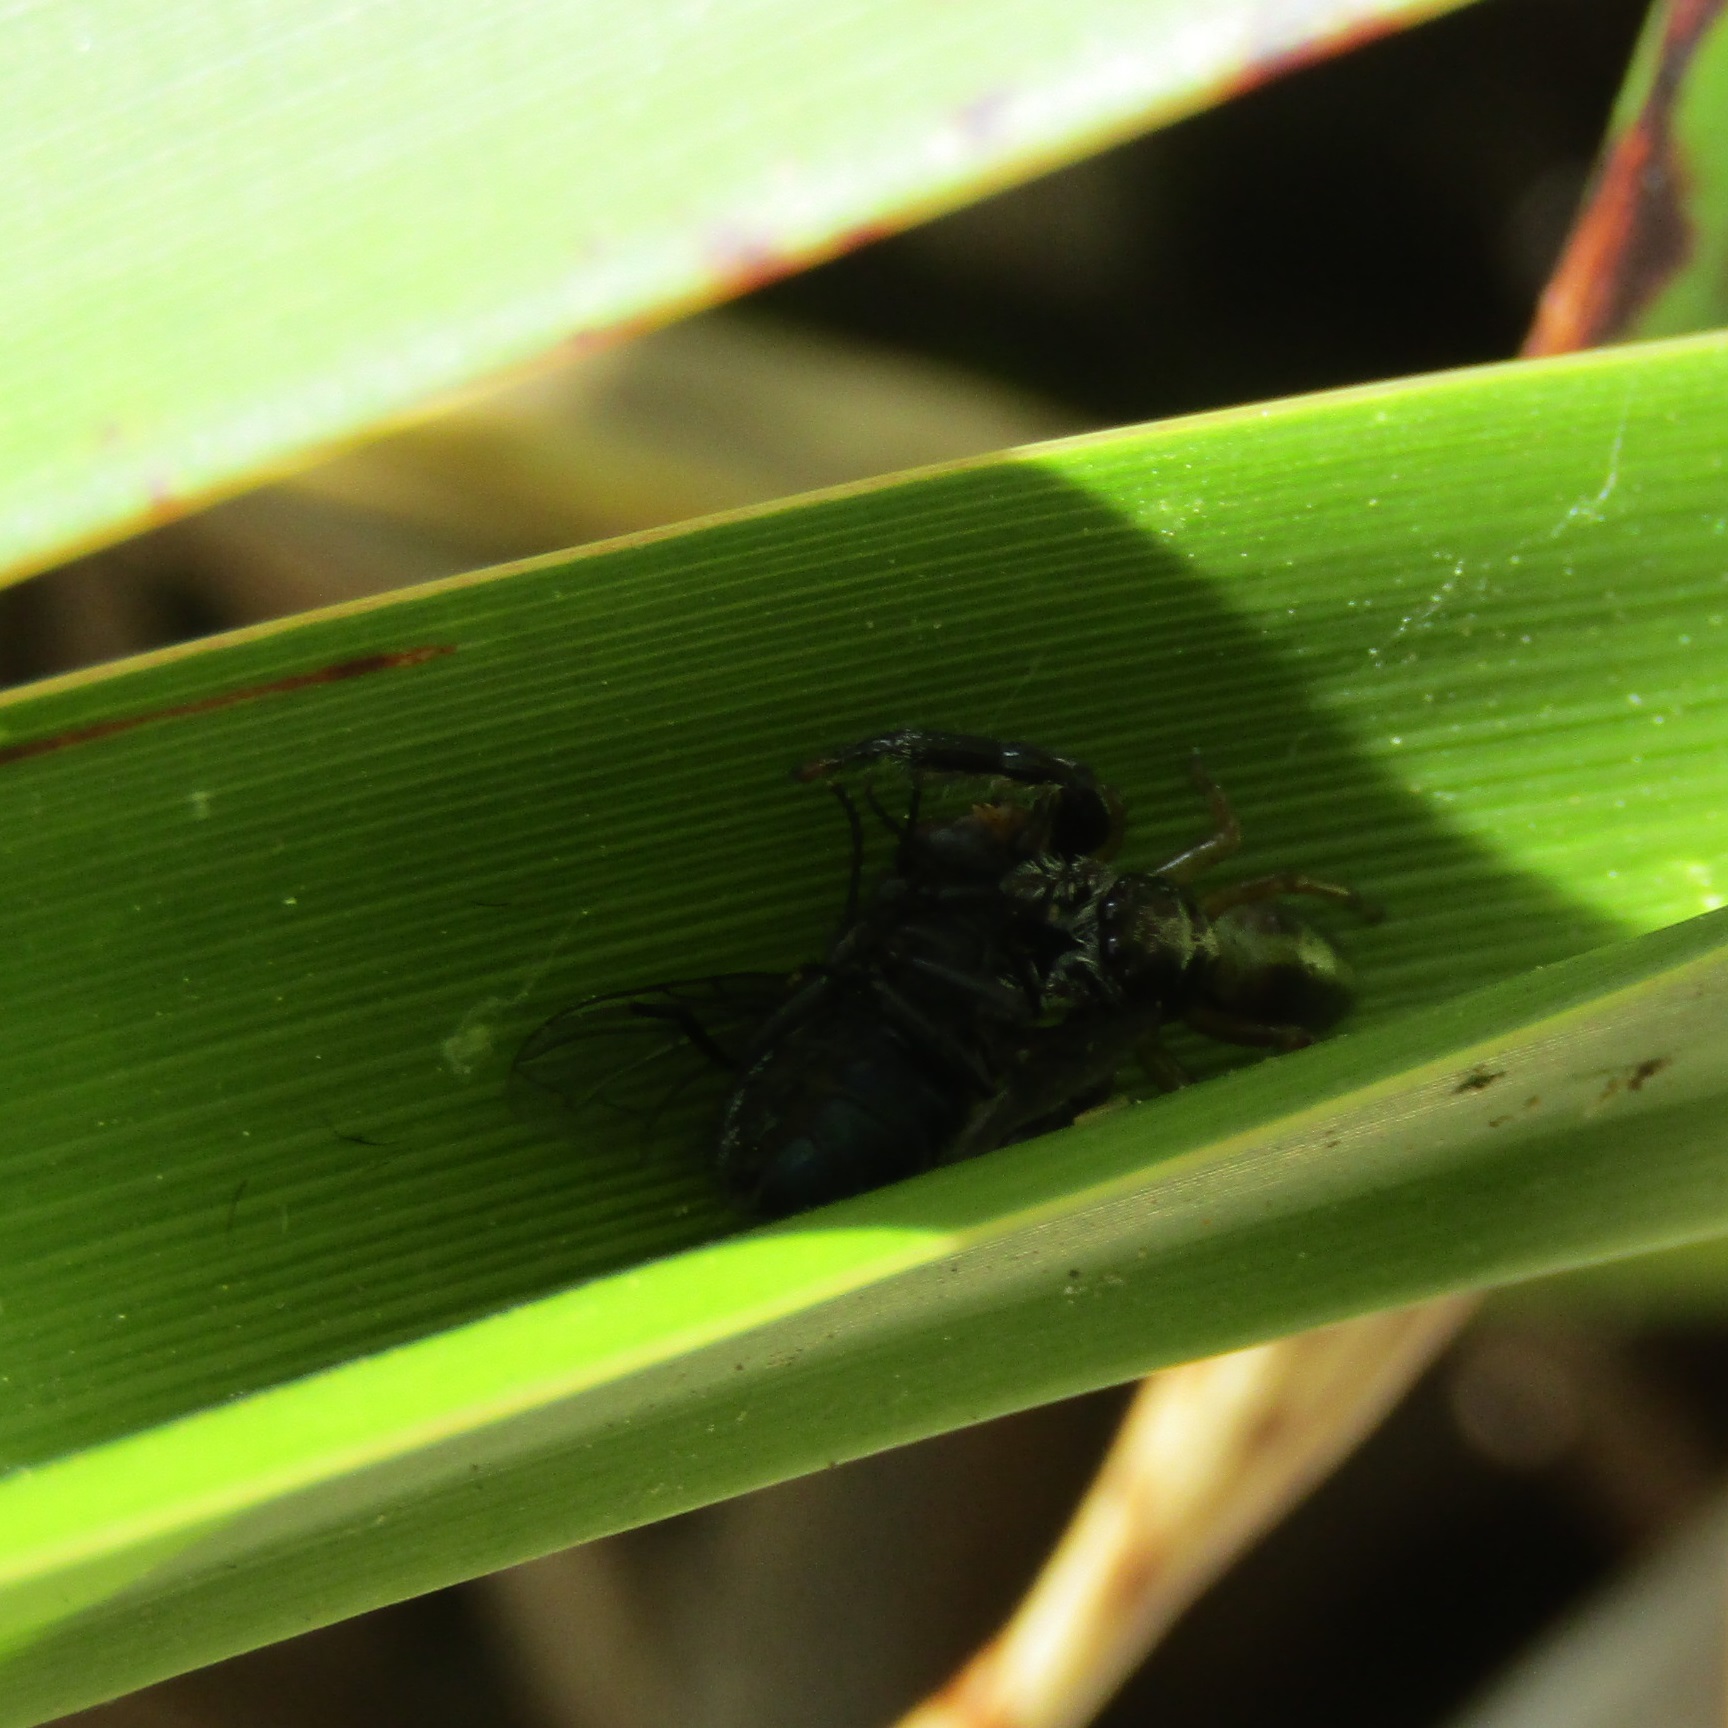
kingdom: Animalia
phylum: Arthropoda
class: Arachnida
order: Araneae
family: Salticidae
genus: Trite
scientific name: Trite planiceps
